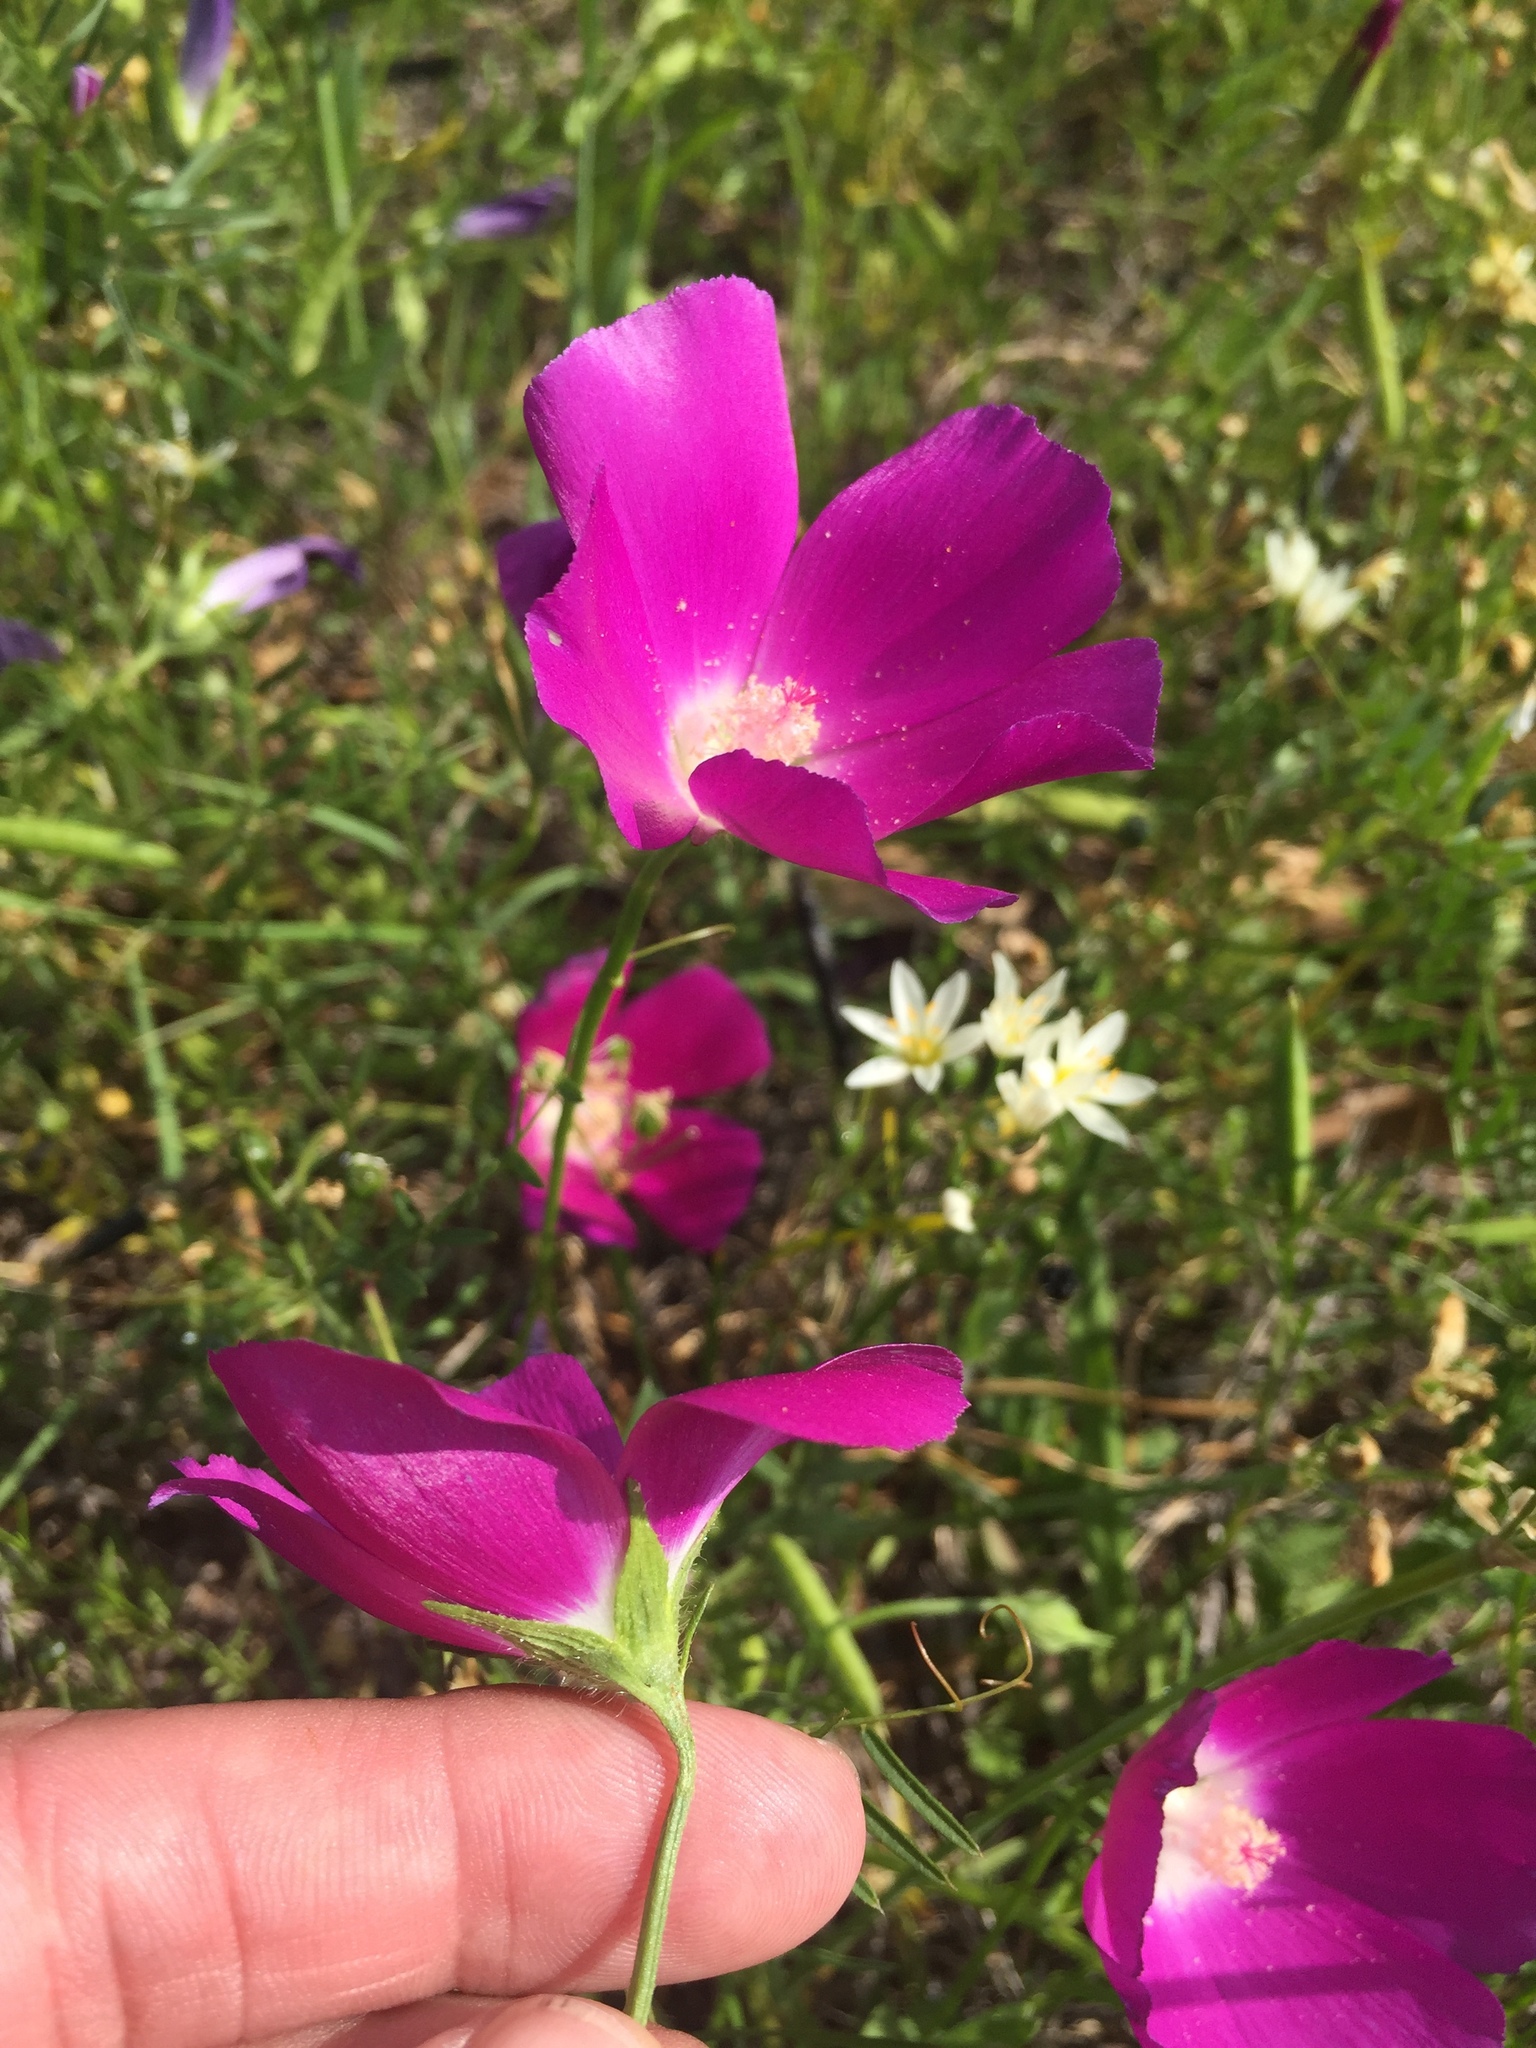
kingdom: Plantae
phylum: Tracheophyta
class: Magnoliopsida
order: Malvales
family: Malvaceae
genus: Callirhoe
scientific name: Callirhoe involucrata
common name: Purple poppy-mallow
